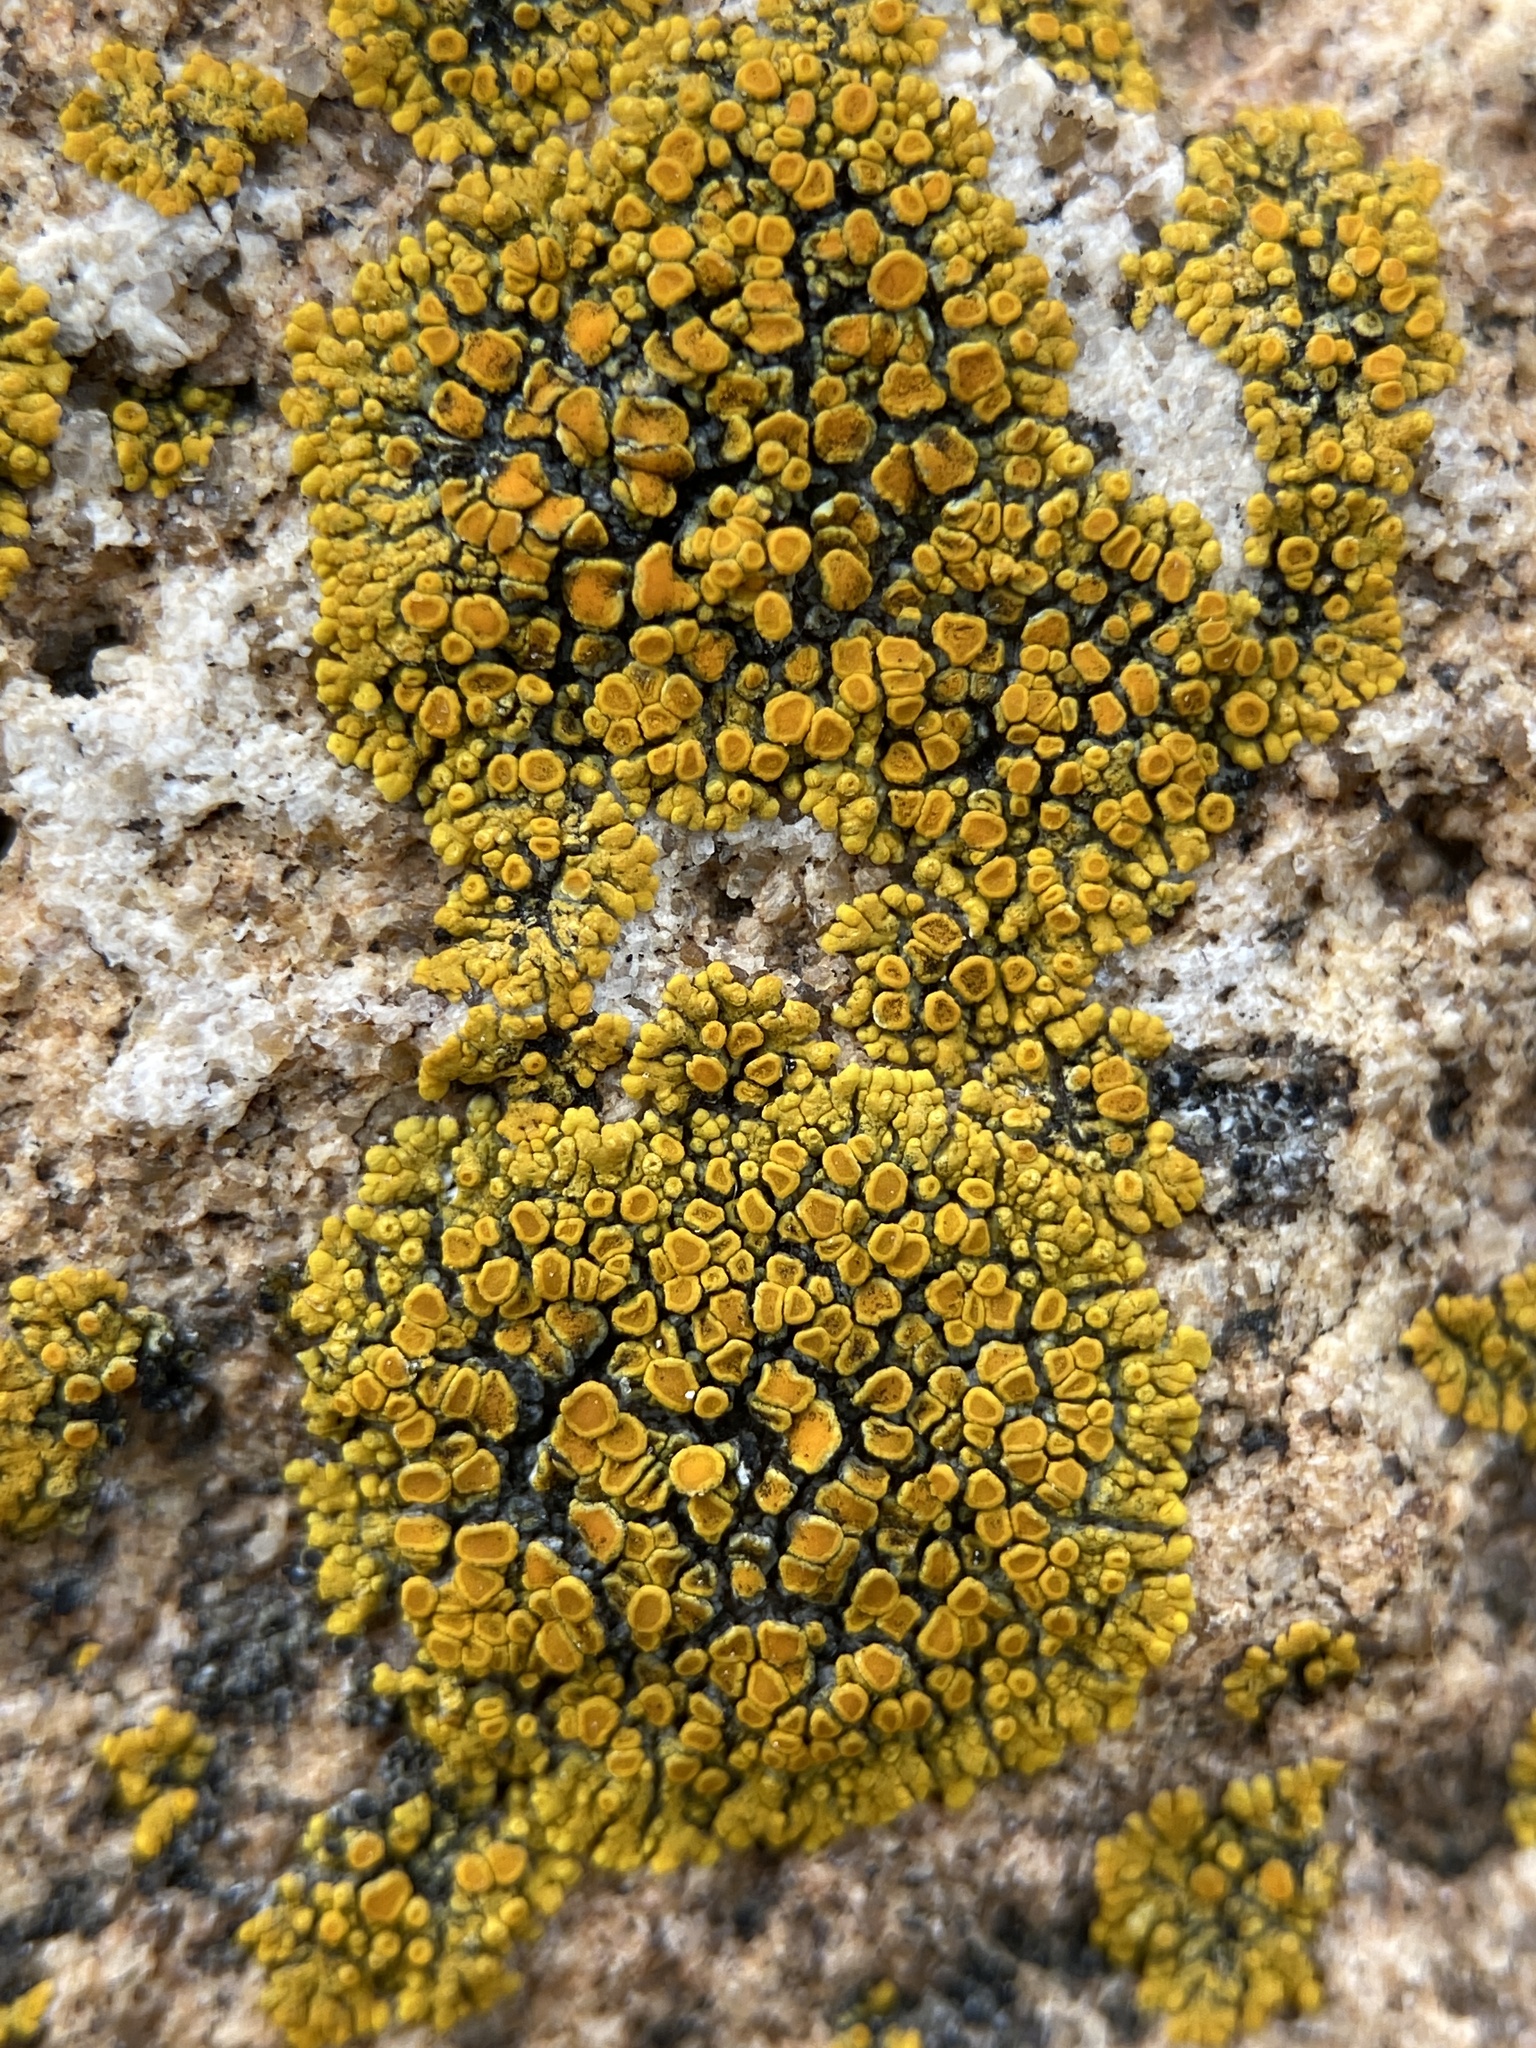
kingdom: Fungi
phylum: Ascomycota
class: Lecanoromycetes
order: Teloschistales
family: Teloschistaceae
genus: Athallia
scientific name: Athallia scopularis
